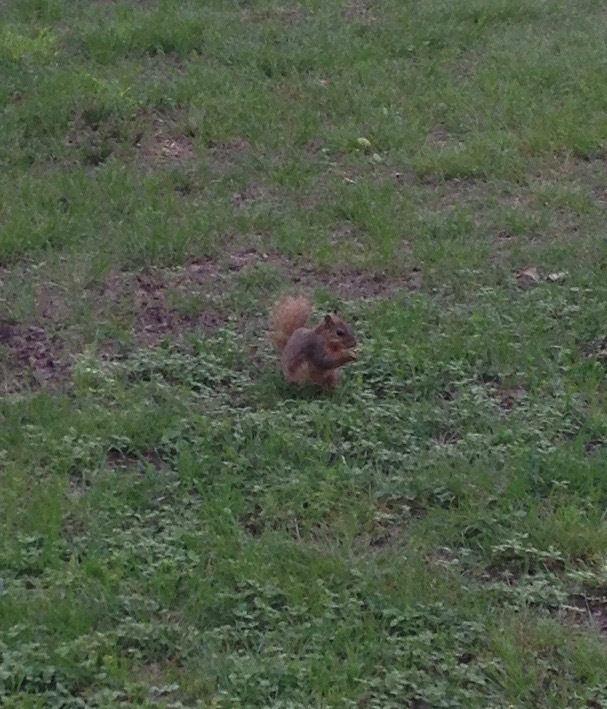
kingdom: Animalia
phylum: Chordata
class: Mammalia
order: Rodentia
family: Sciuridae
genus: Sciurus
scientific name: Sciurus niger
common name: Fox squirrel
